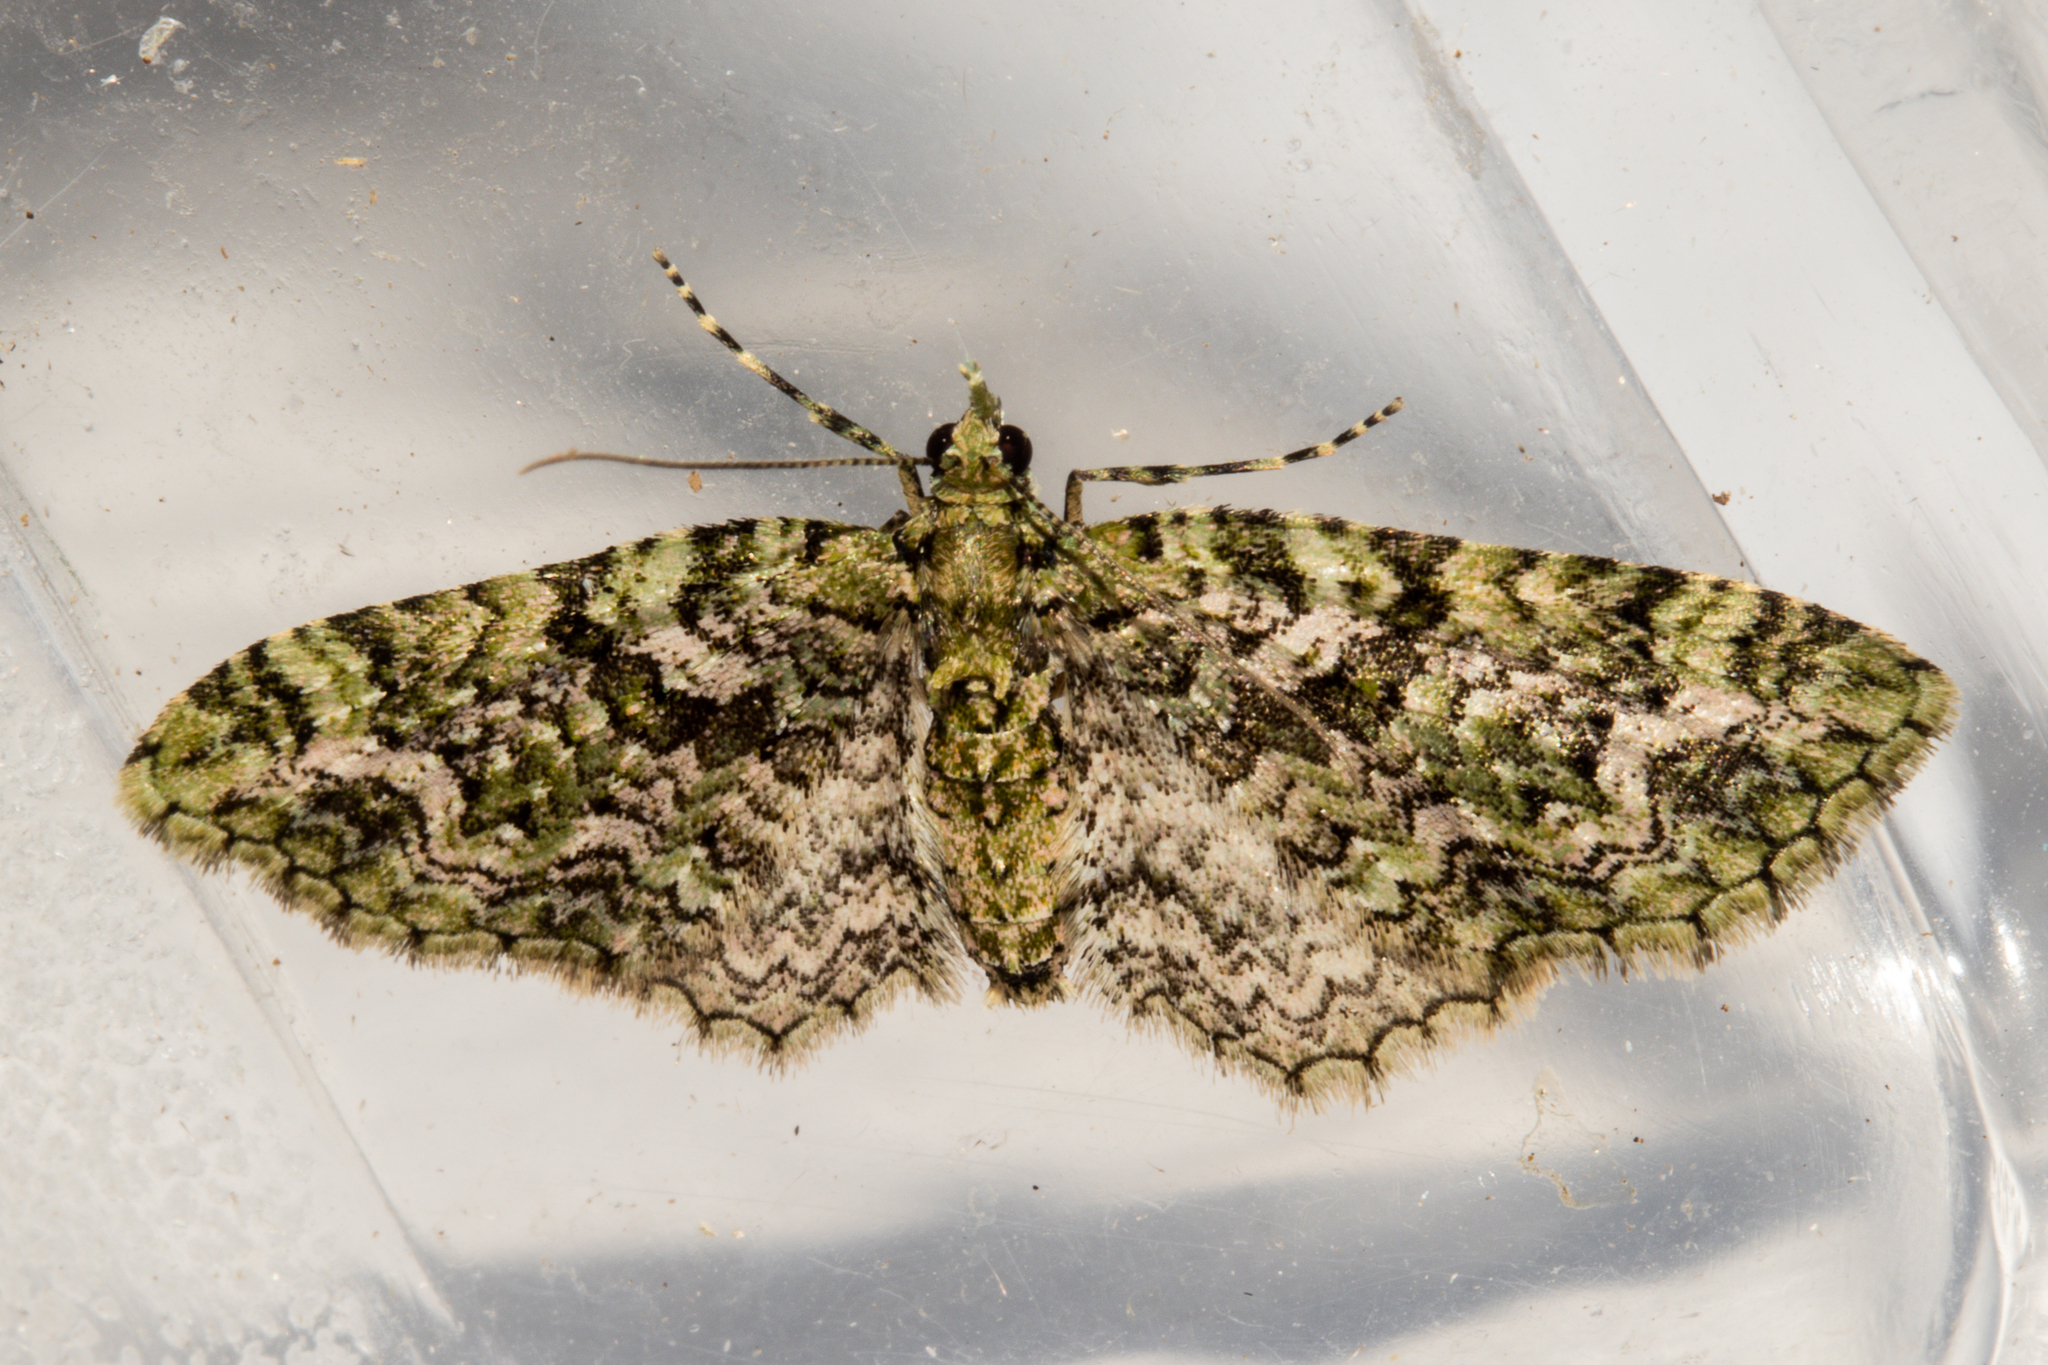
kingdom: Animalia
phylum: Arthropoda
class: Insecta
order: Lepidoptera
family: Geometridae
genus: Pasiphila
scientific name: Pasiphila muscosata
